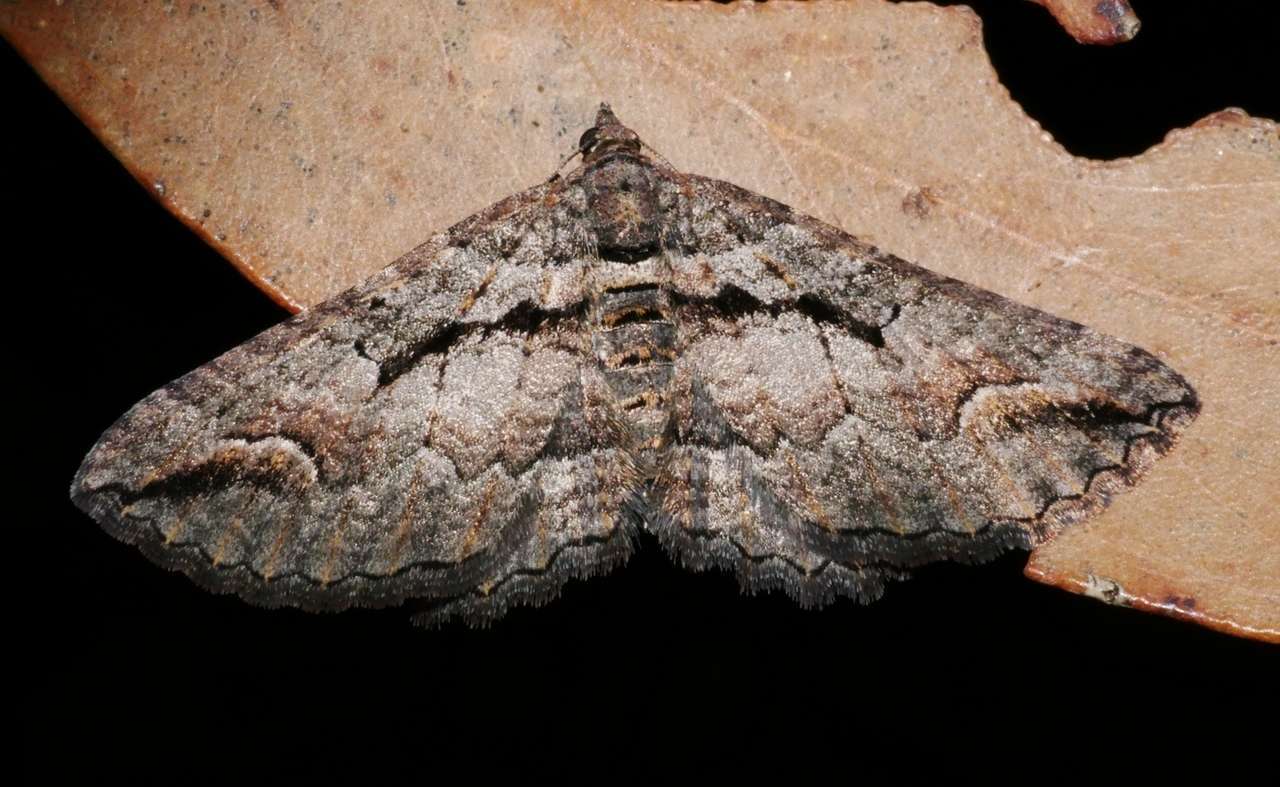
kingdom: Animalia
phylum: Arthropoda
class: Insecta
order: Lepidoptera
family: Geometridae
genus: Chrysolarentia
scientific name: Chrysolarentia plagiocausta
